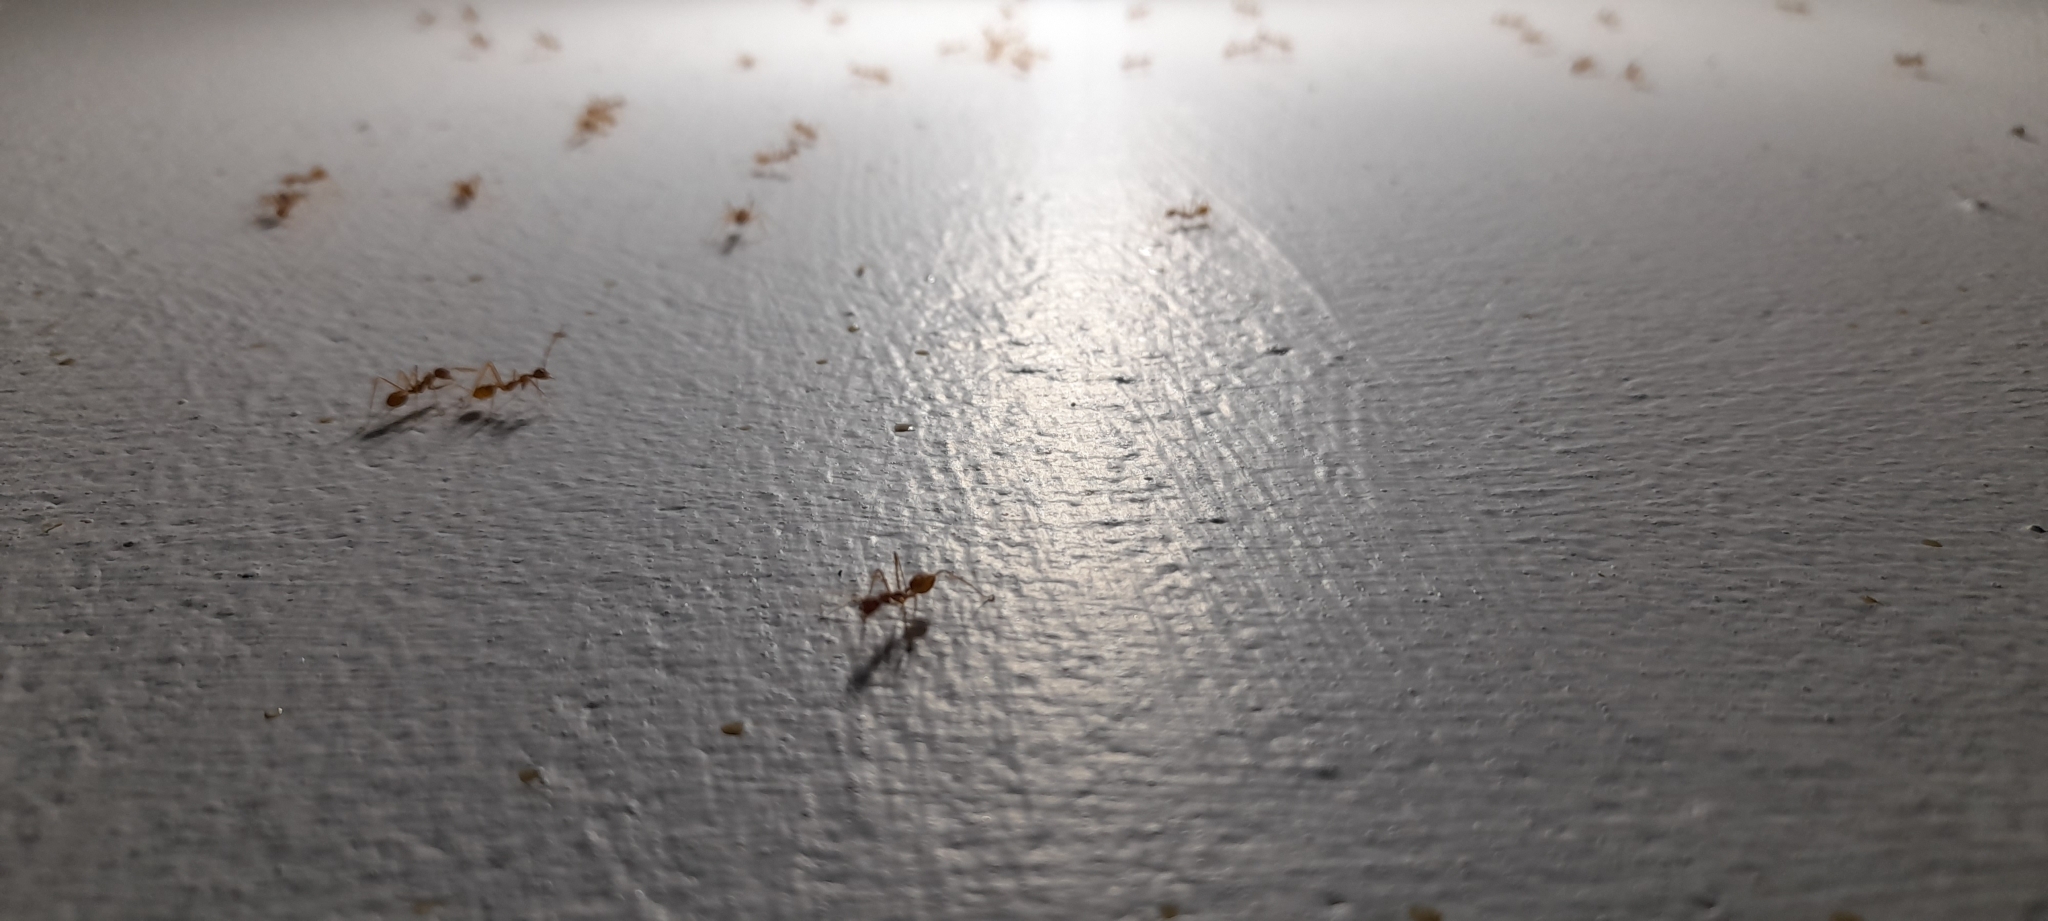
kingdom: Animalia
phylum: Arthropoda
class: Insecta
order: Hymenoptera
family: Formicidae
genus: Oecophylla
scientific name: Oecophylla smaragdina
